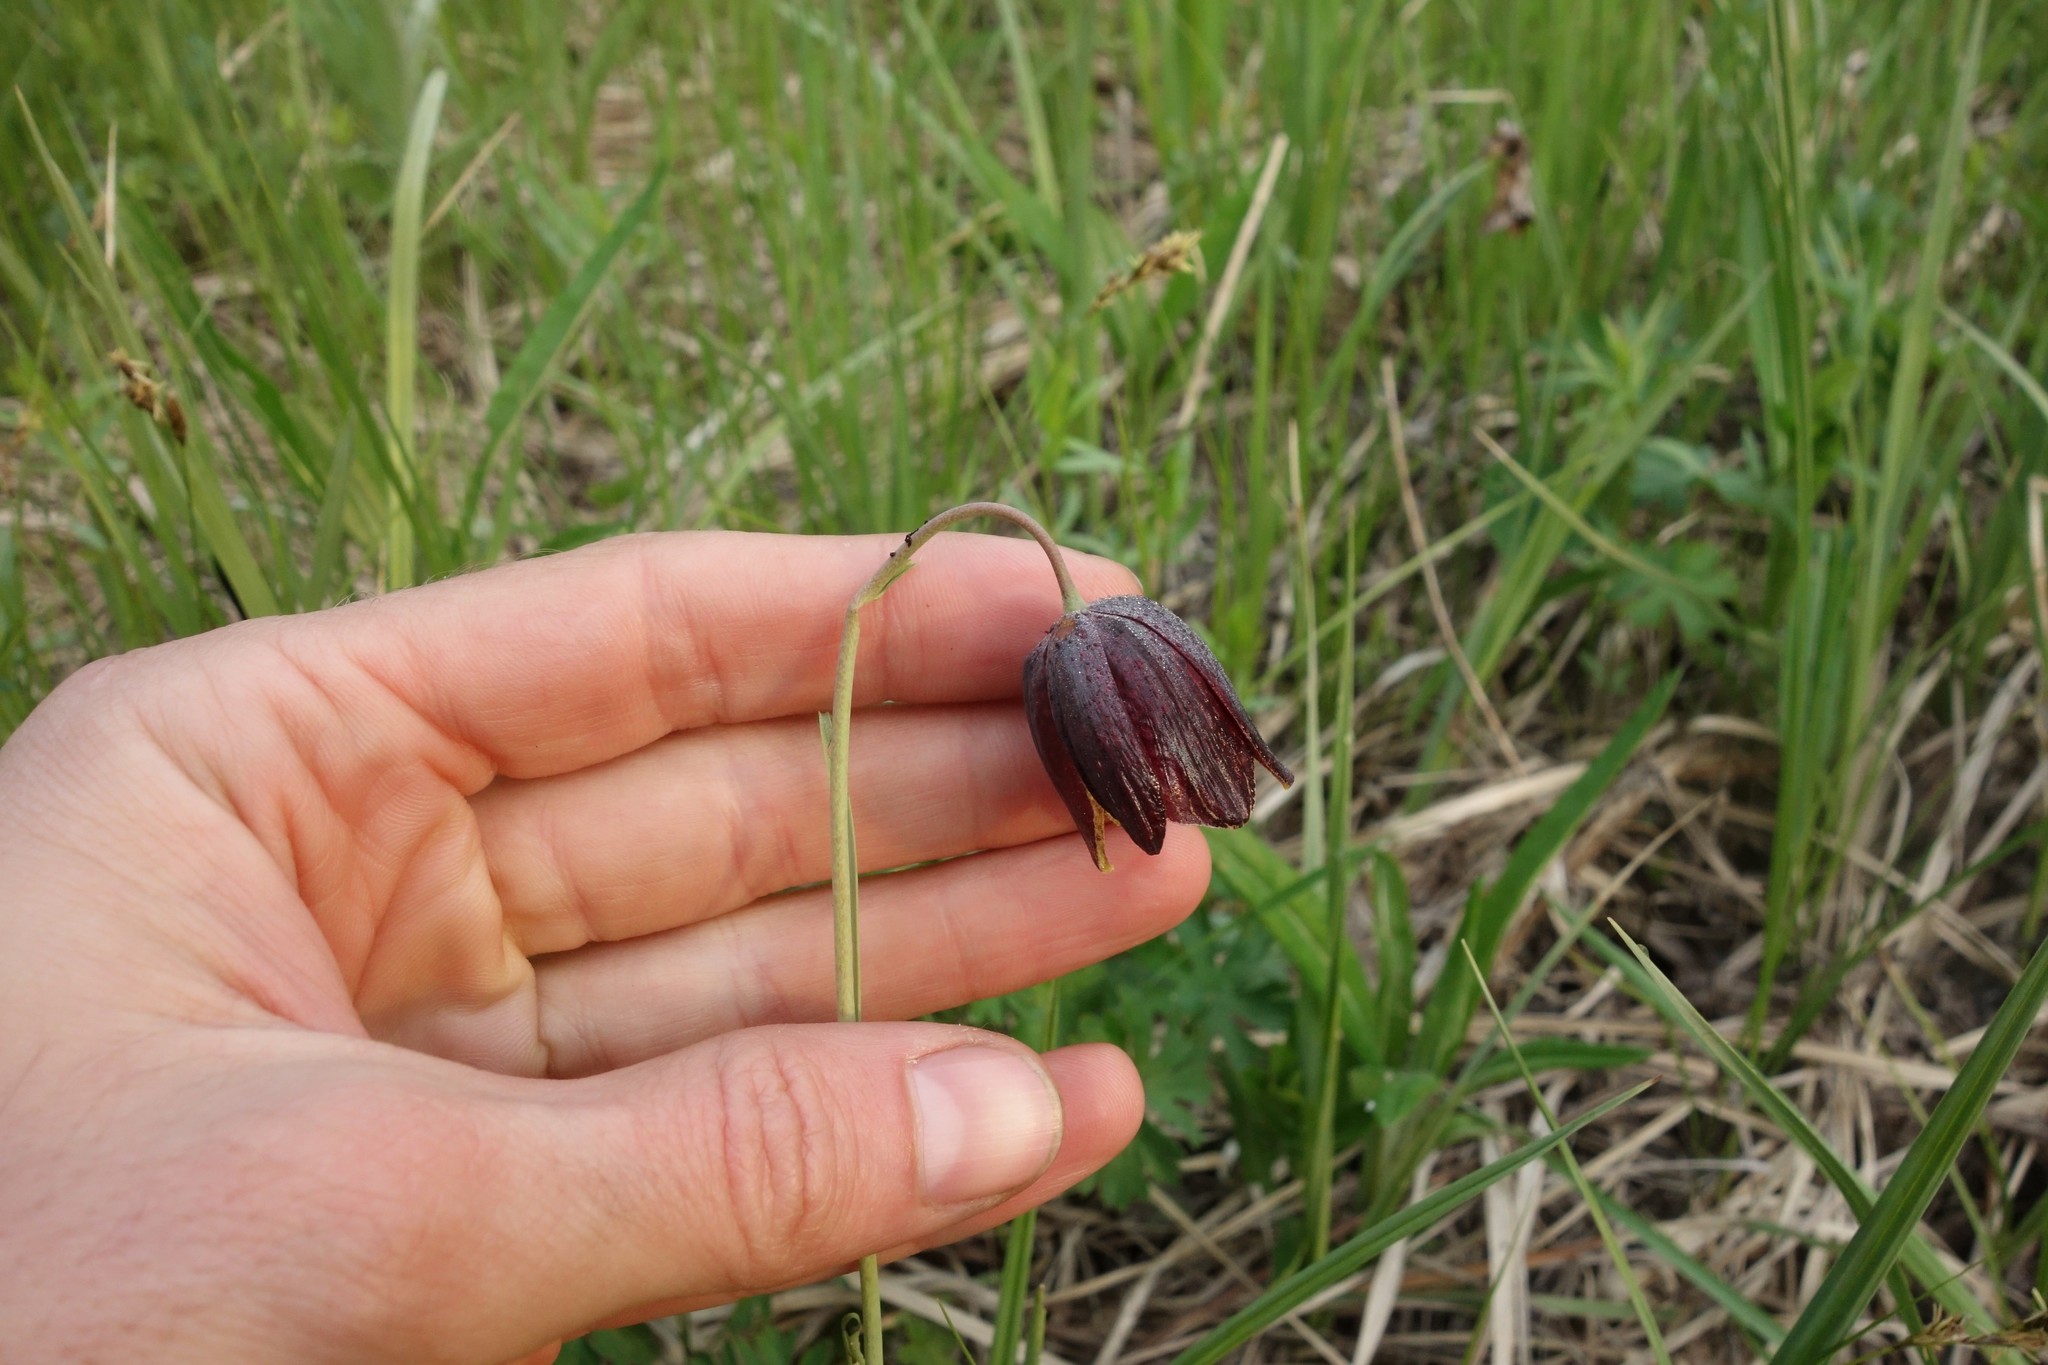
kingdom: Plantae
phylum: Tracheophyta
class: Liliopsida
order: Liliales
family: Liliaceae
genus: Fritillaria
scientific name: Fritillaria meleagroides
